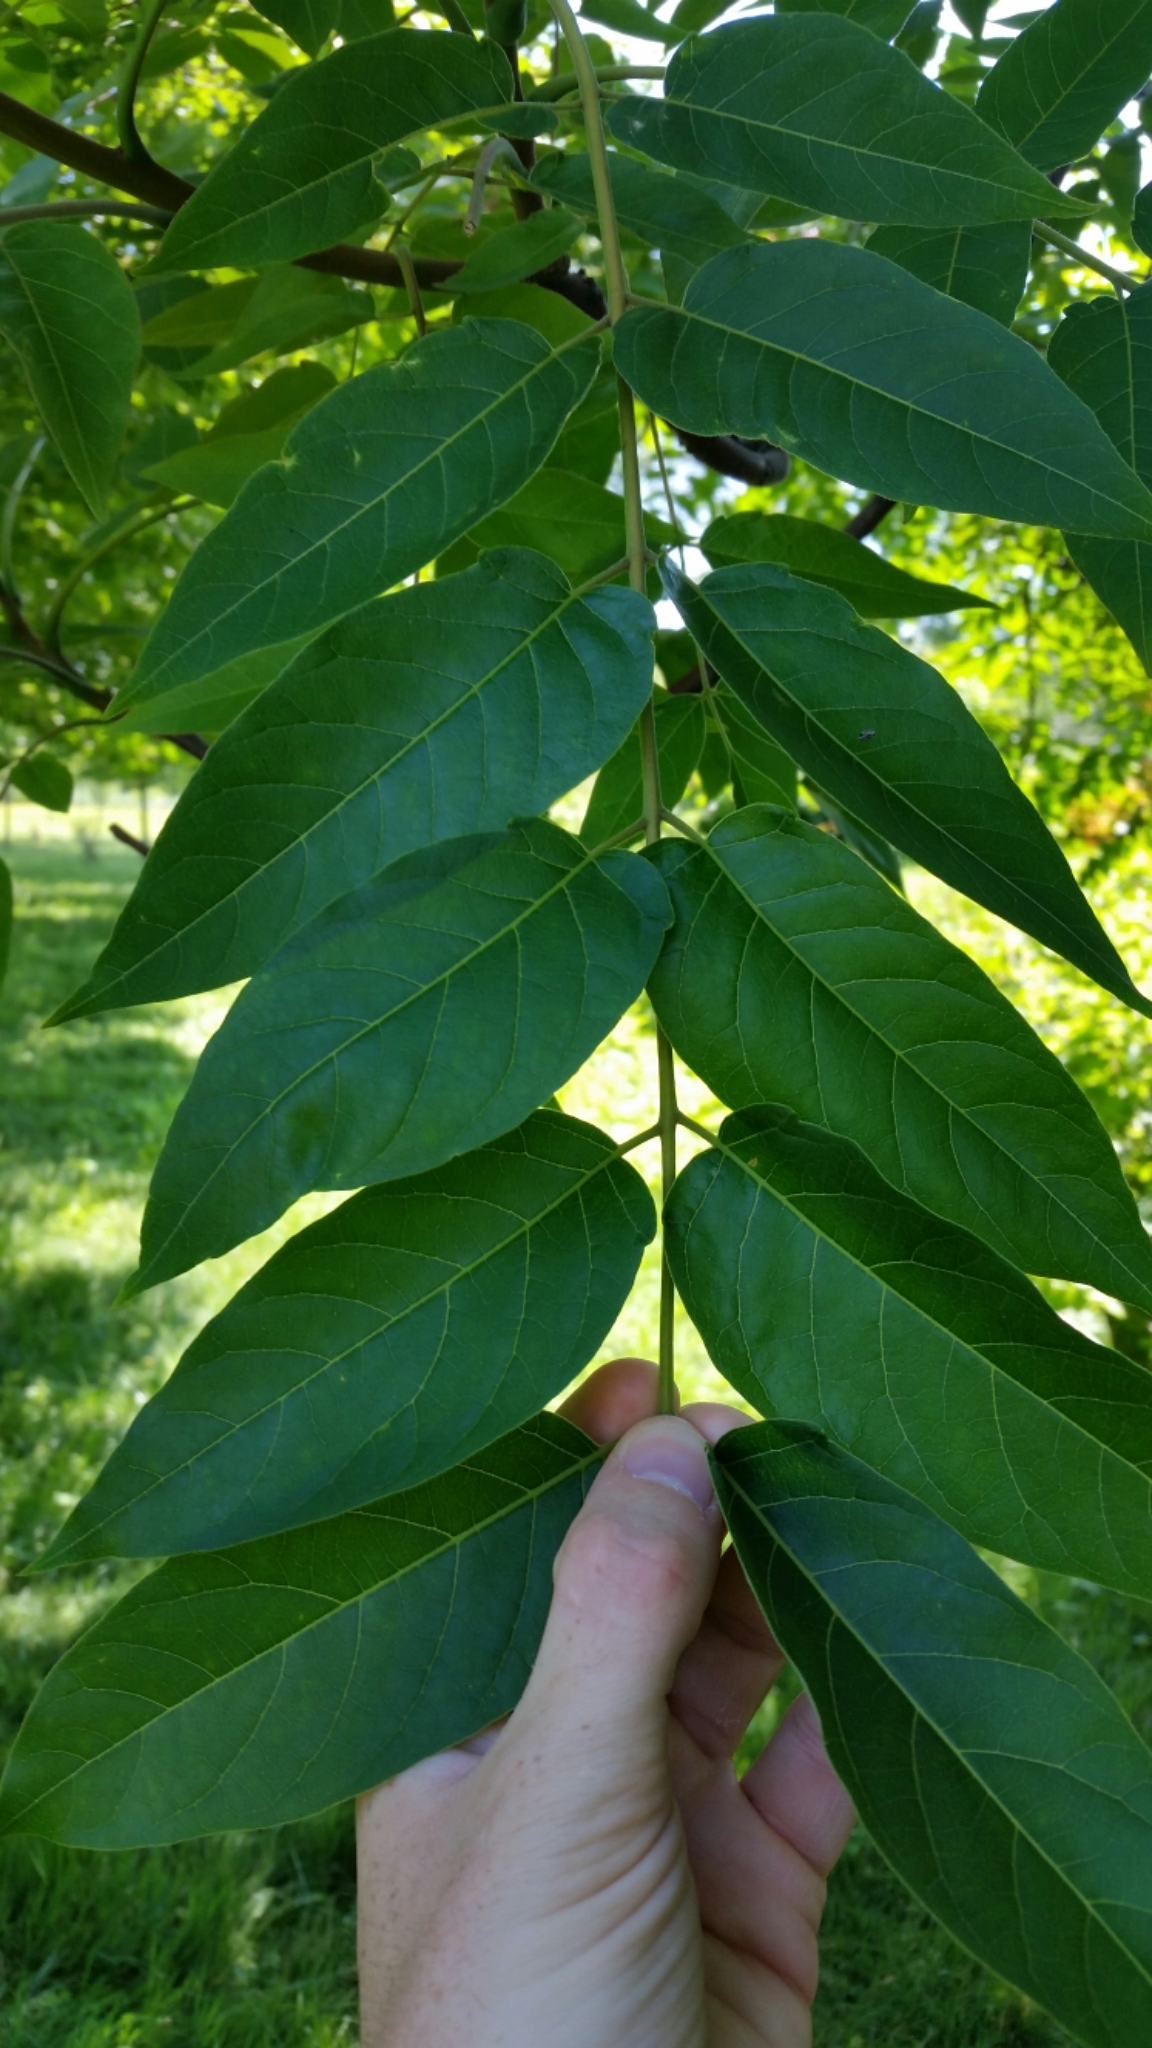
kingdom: Plantae
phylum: Tracheophyta
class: Magnoliopsida
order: Sapindales
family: Simaroubaceae
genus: Ailanthus
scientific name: Ailanthus altissima
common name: Tree-of-heaven
